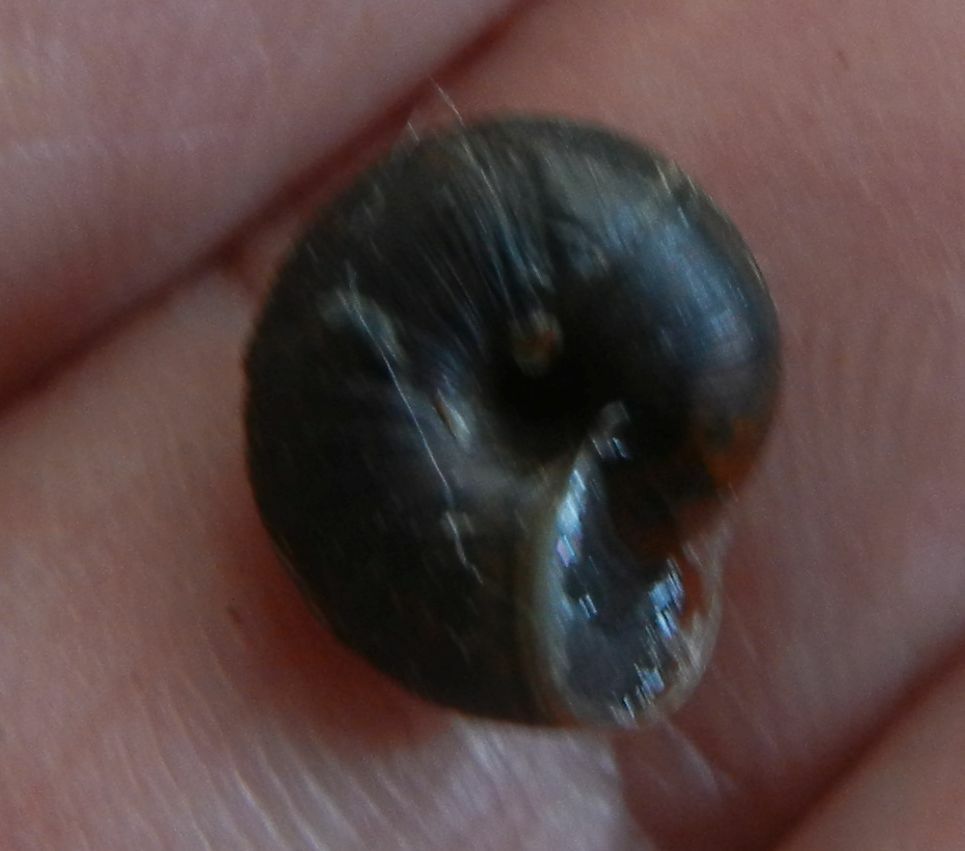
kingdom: Animalia
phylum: Mollusca
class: Gastropoda
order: Stylommatophora
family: Hygromiidae
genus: Trochulus
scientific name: Trochulus striolatus
